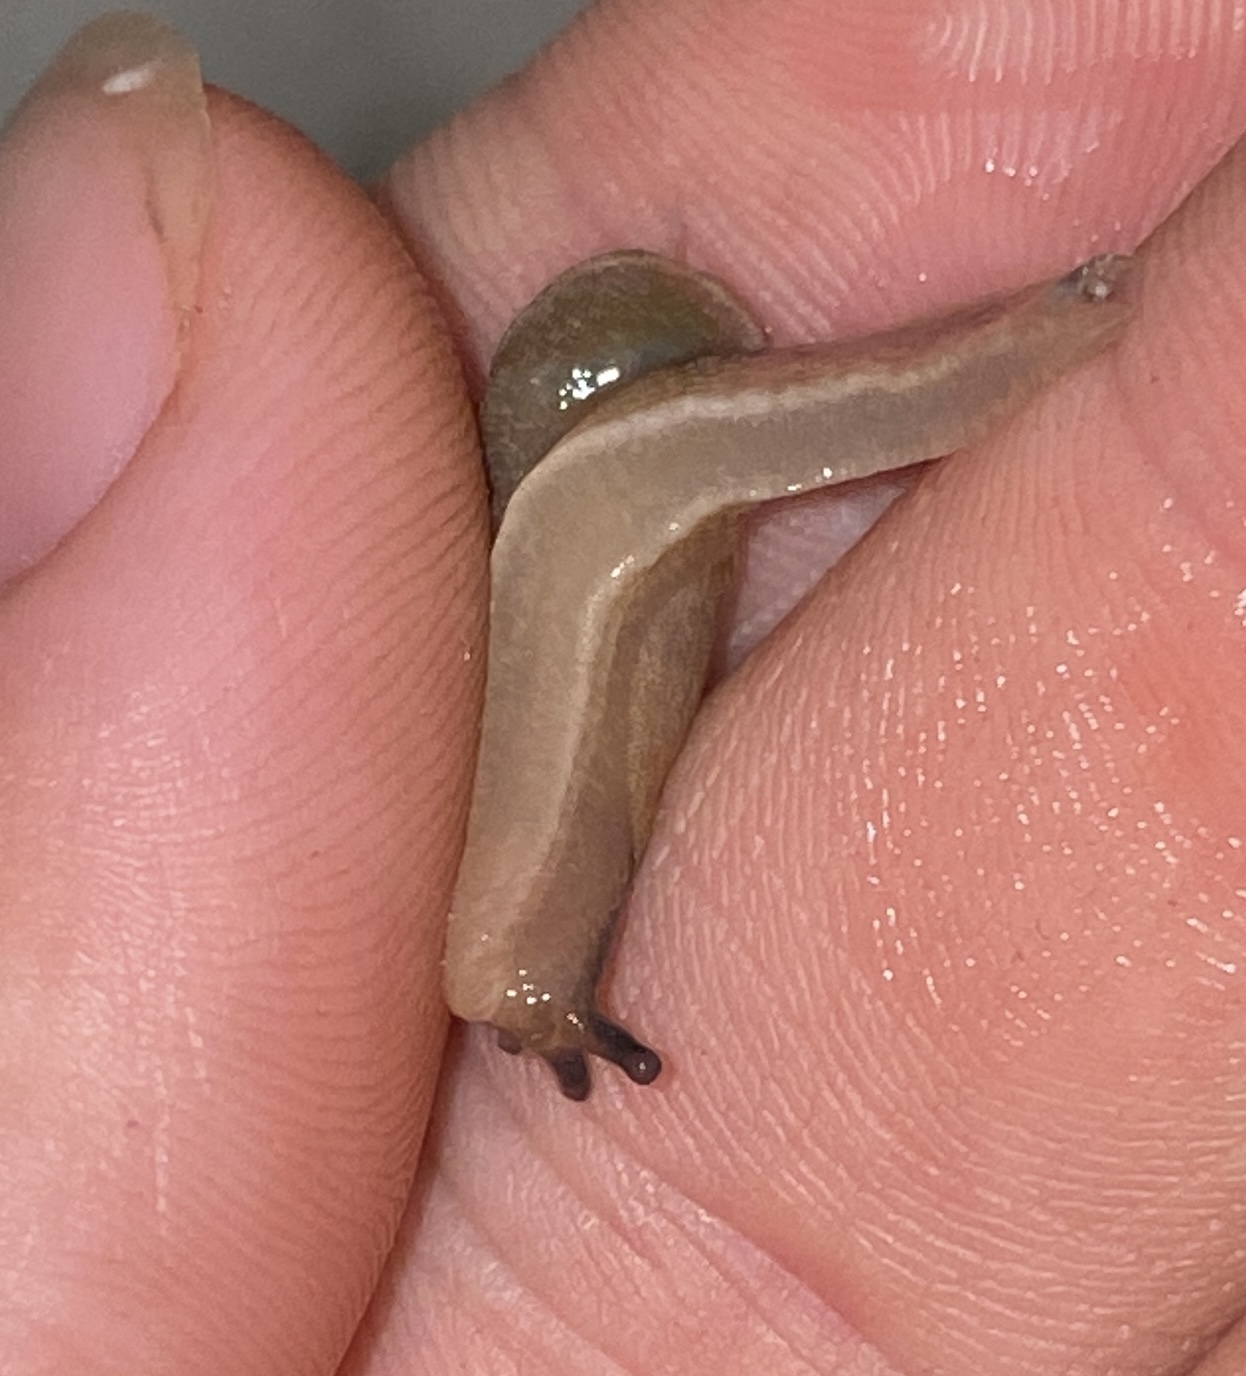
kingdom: Animalia
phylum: Mollusca
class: Gastropoda
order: Stylommatophora
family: Ariophantidae
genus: Parmarion
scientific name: Parmarion martensi
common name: Semi-slug
